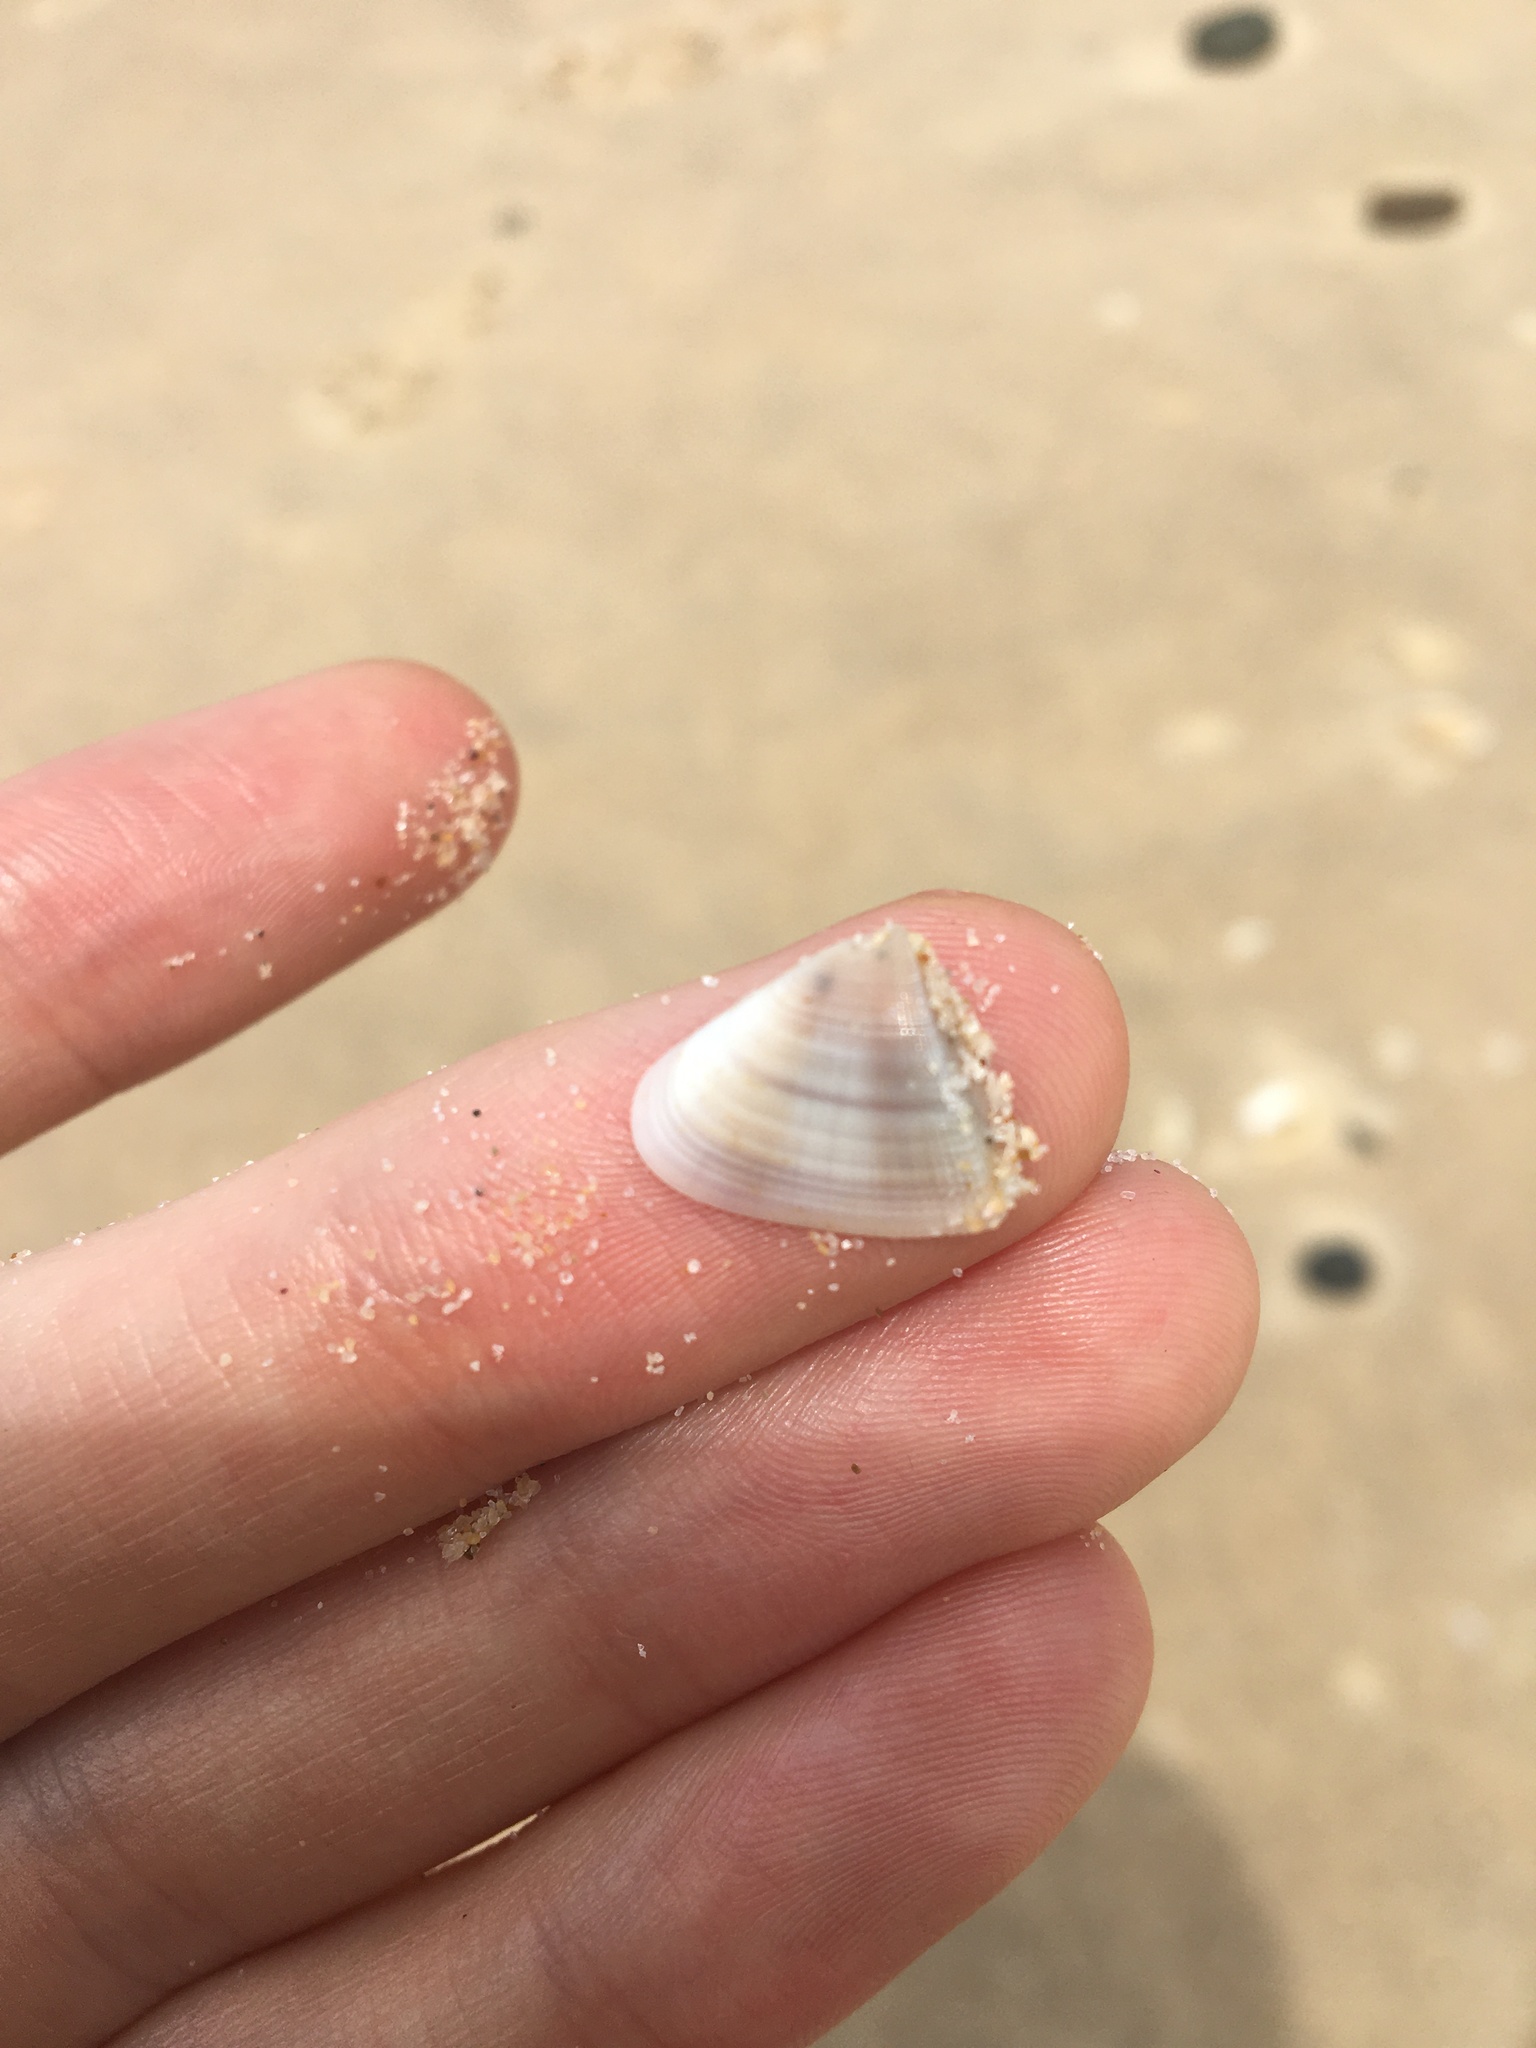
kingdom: Animalia
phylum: Mollusca
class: Bivalvia
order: Cardiida
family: Donacidae
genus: Donax
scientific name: Donax brazieri
